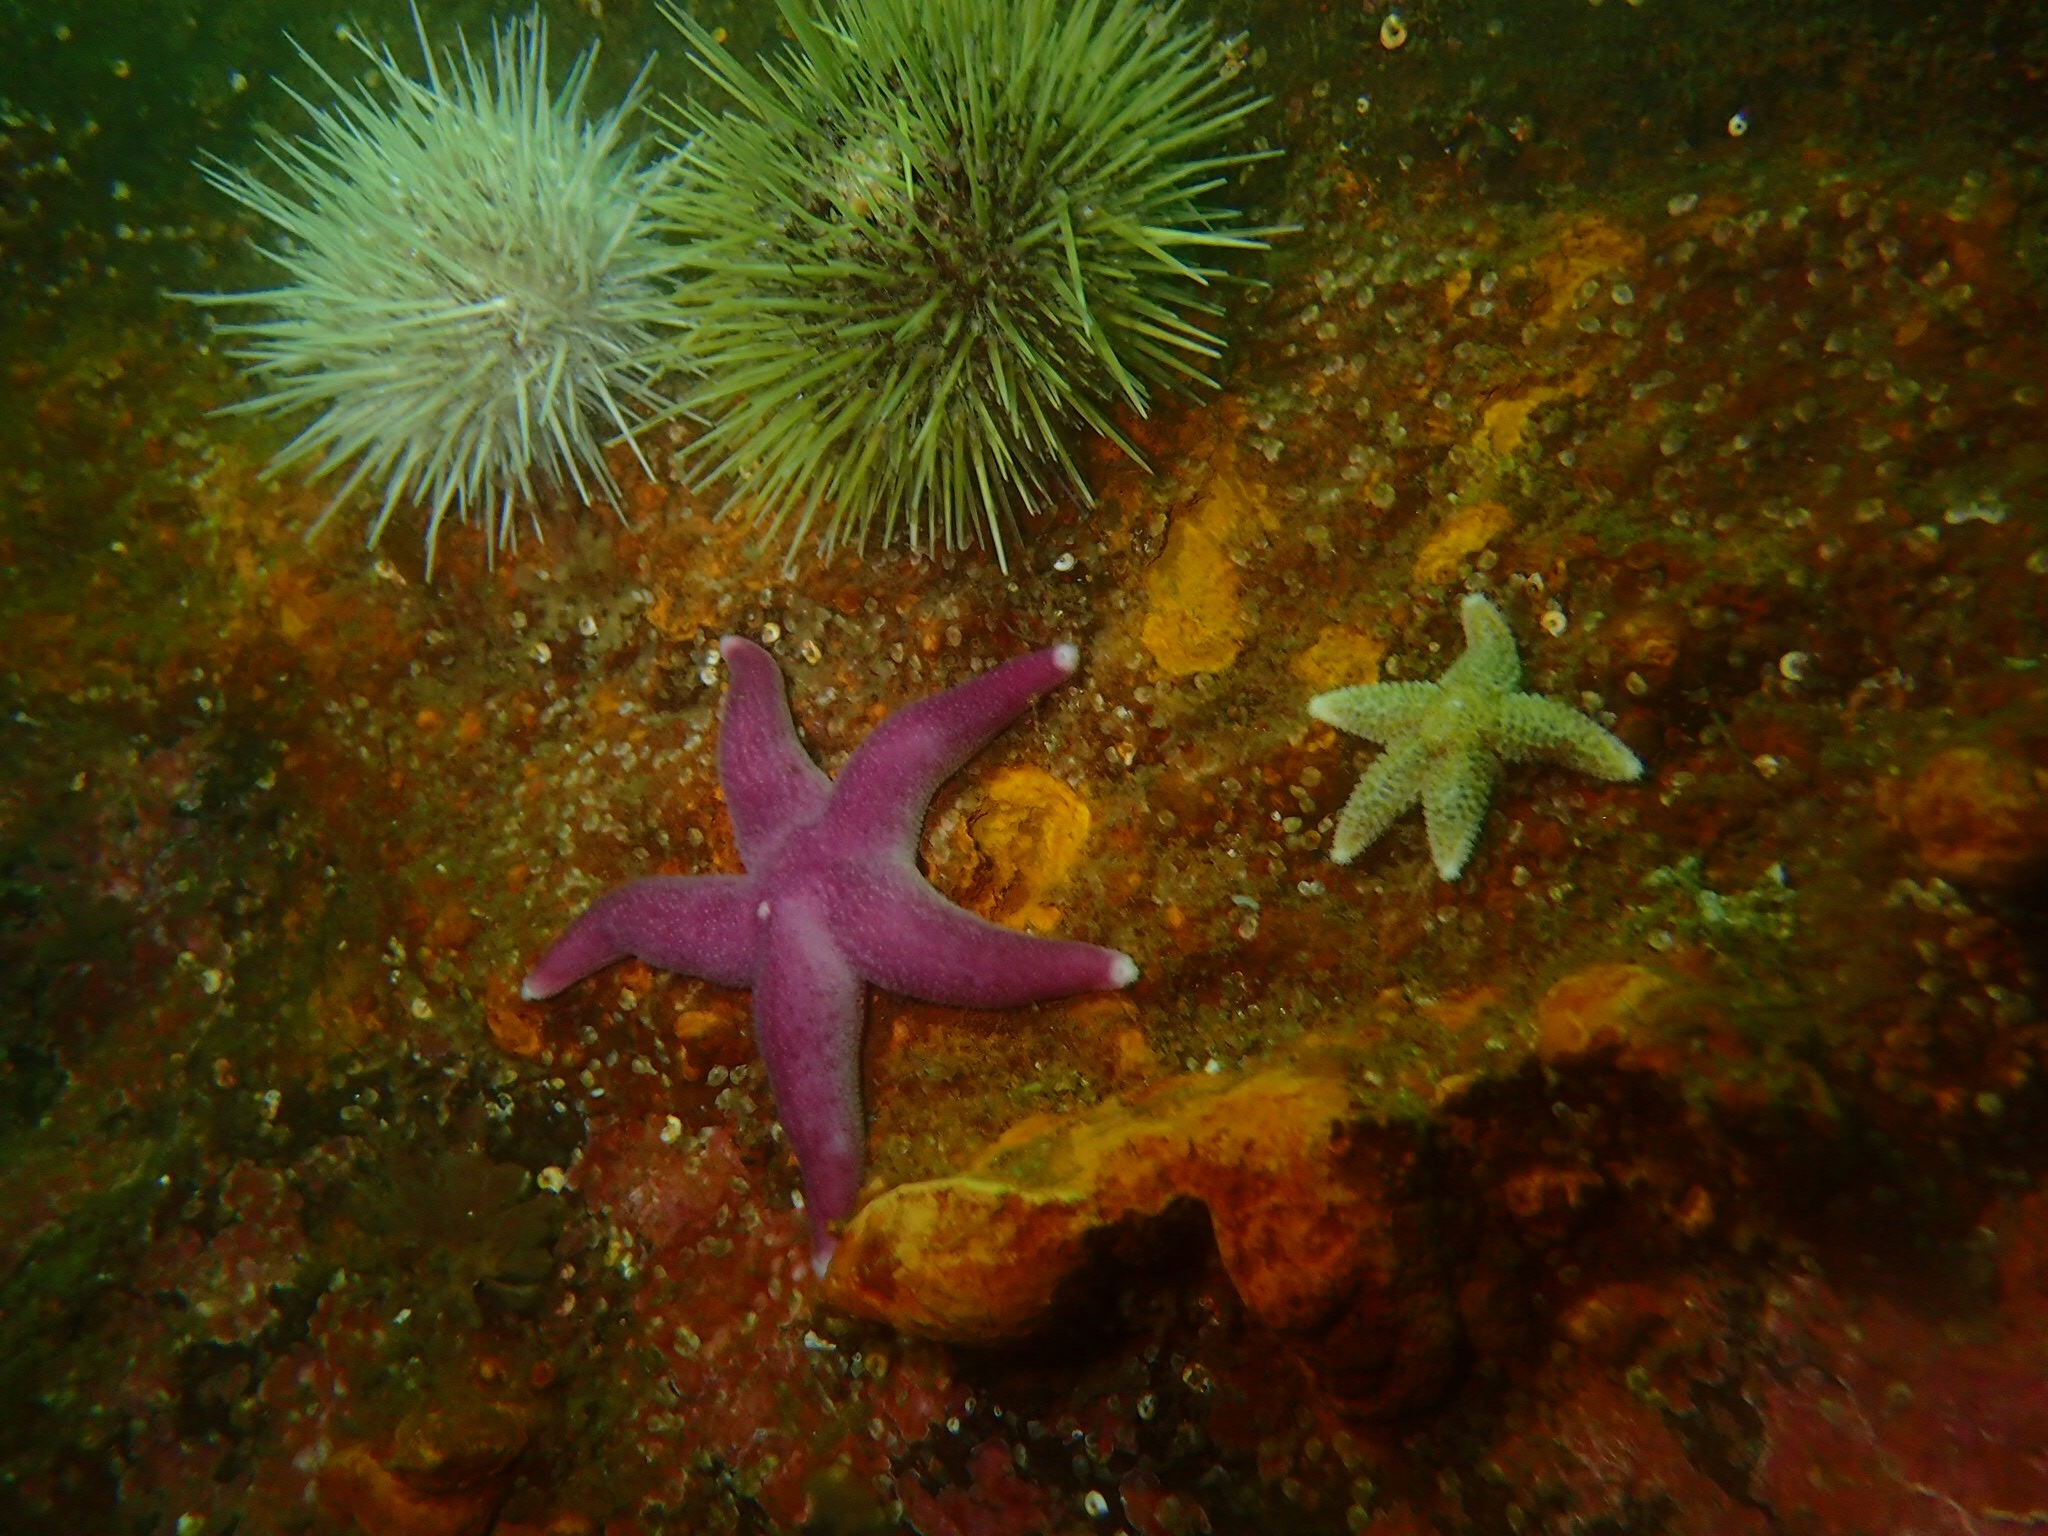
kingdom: Animalia
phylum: Echinodermata
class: Asteroidea
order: Spinulosida
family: Echinasteridae
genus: Henricia
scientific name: Henricia sanguinolenta
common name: Blood star
